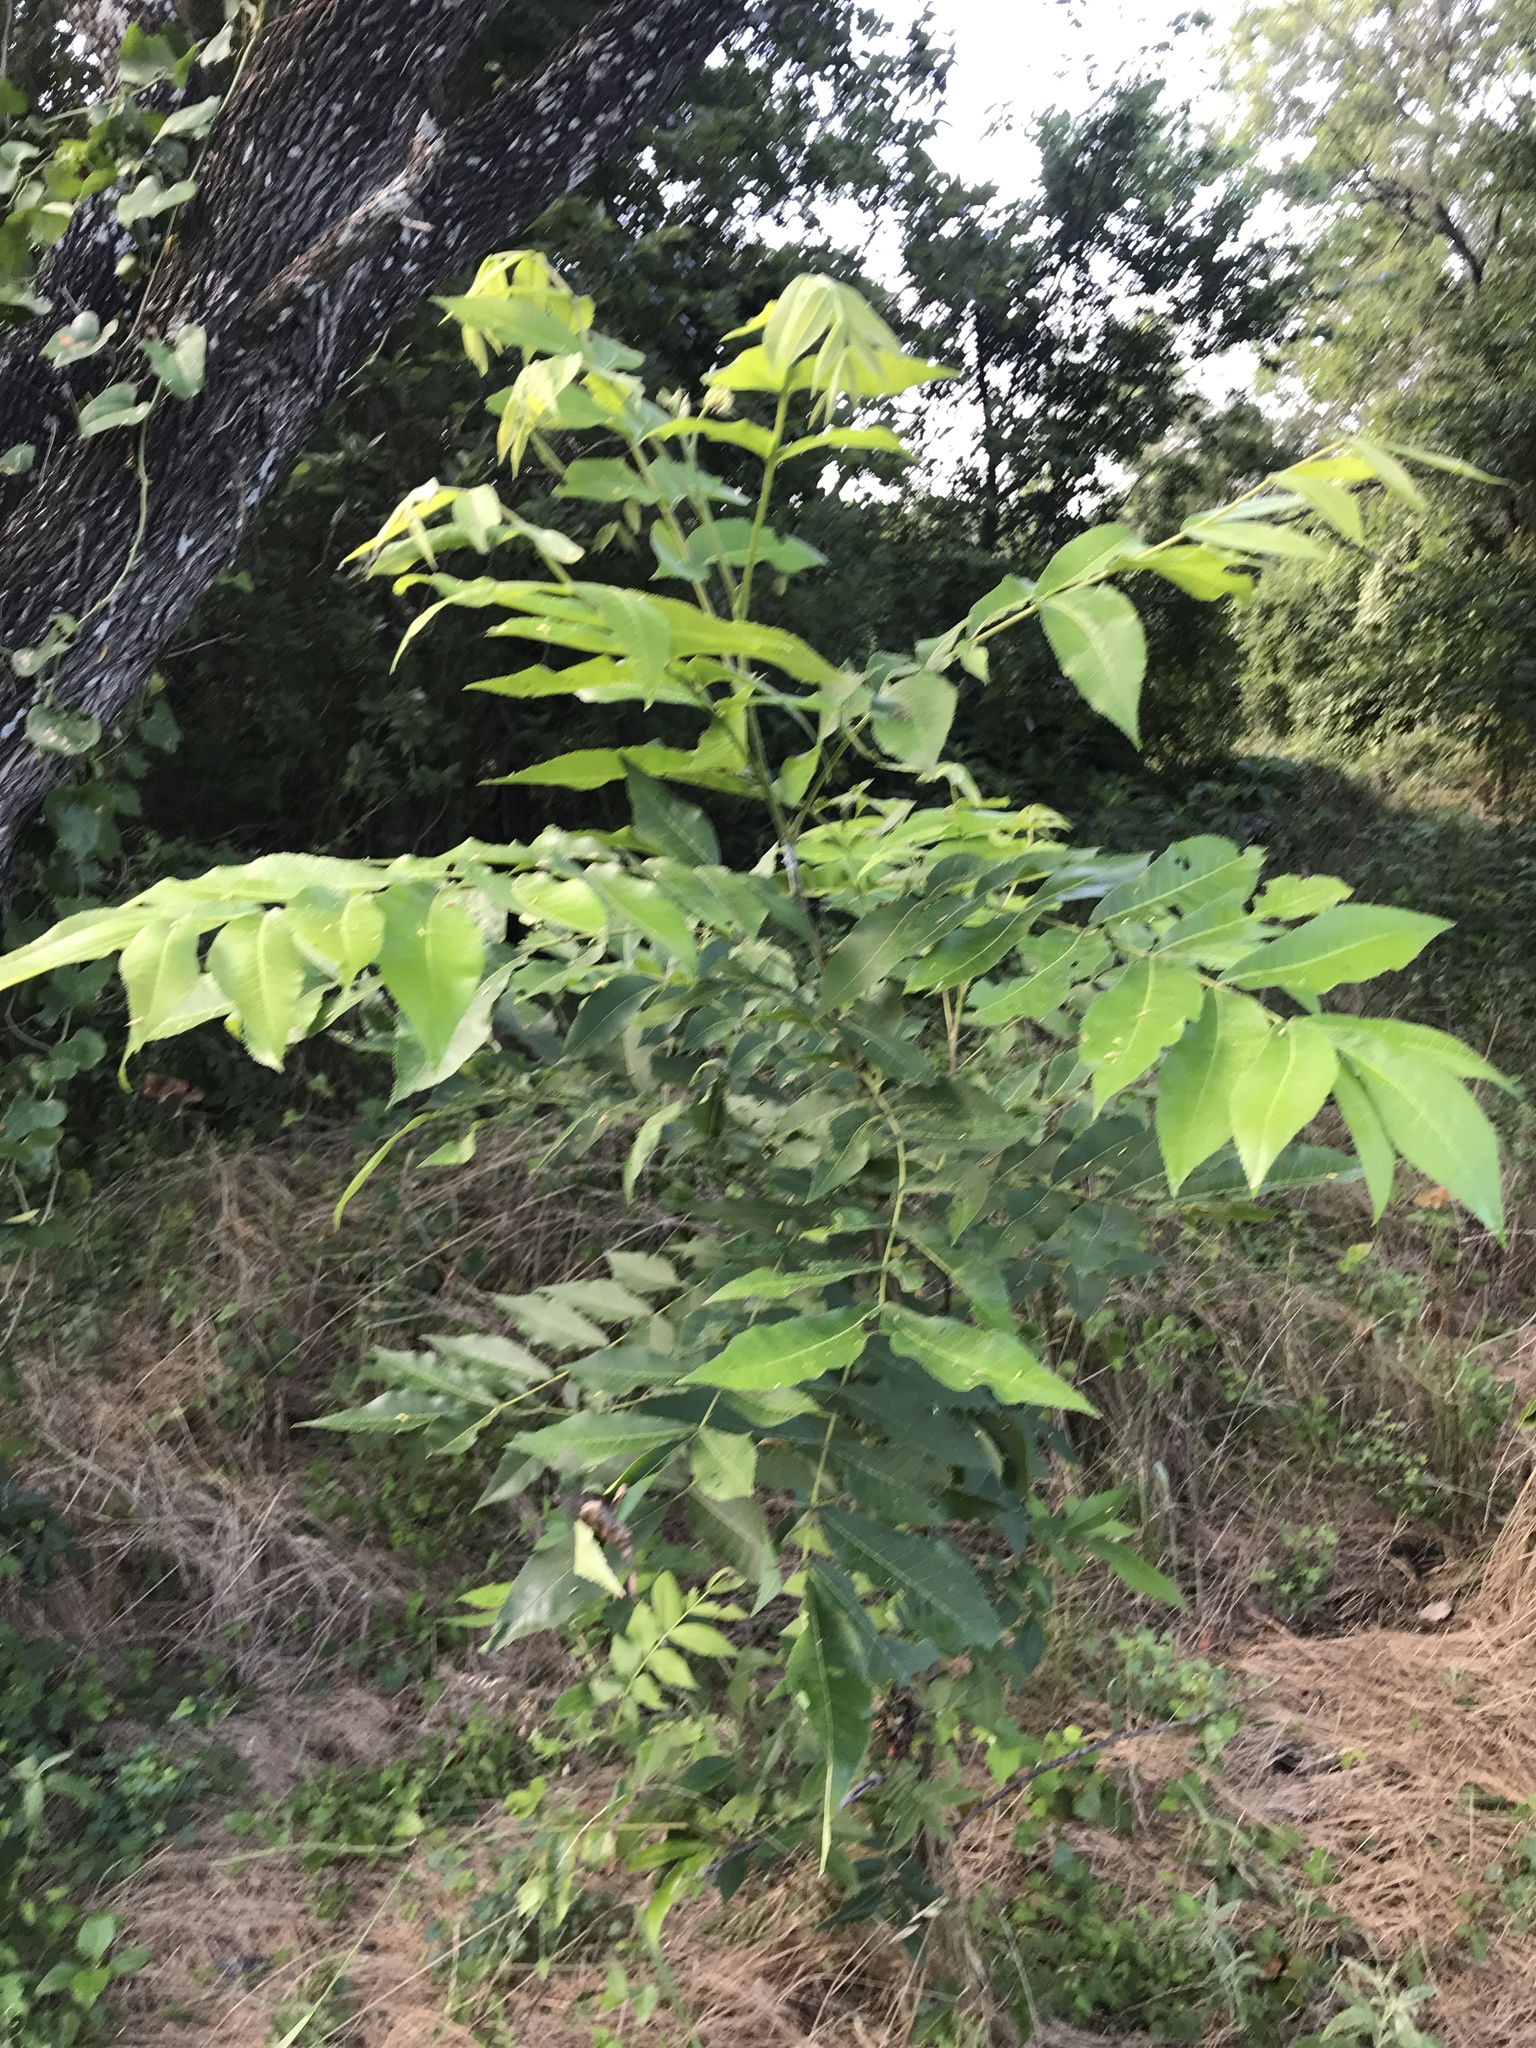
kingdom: Plantae
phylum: Tracheophyta
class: Magnoliopsida
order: Fagales
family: Juglandaceae
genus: Carya
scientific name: Carya illinoinensis
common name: Pecan
